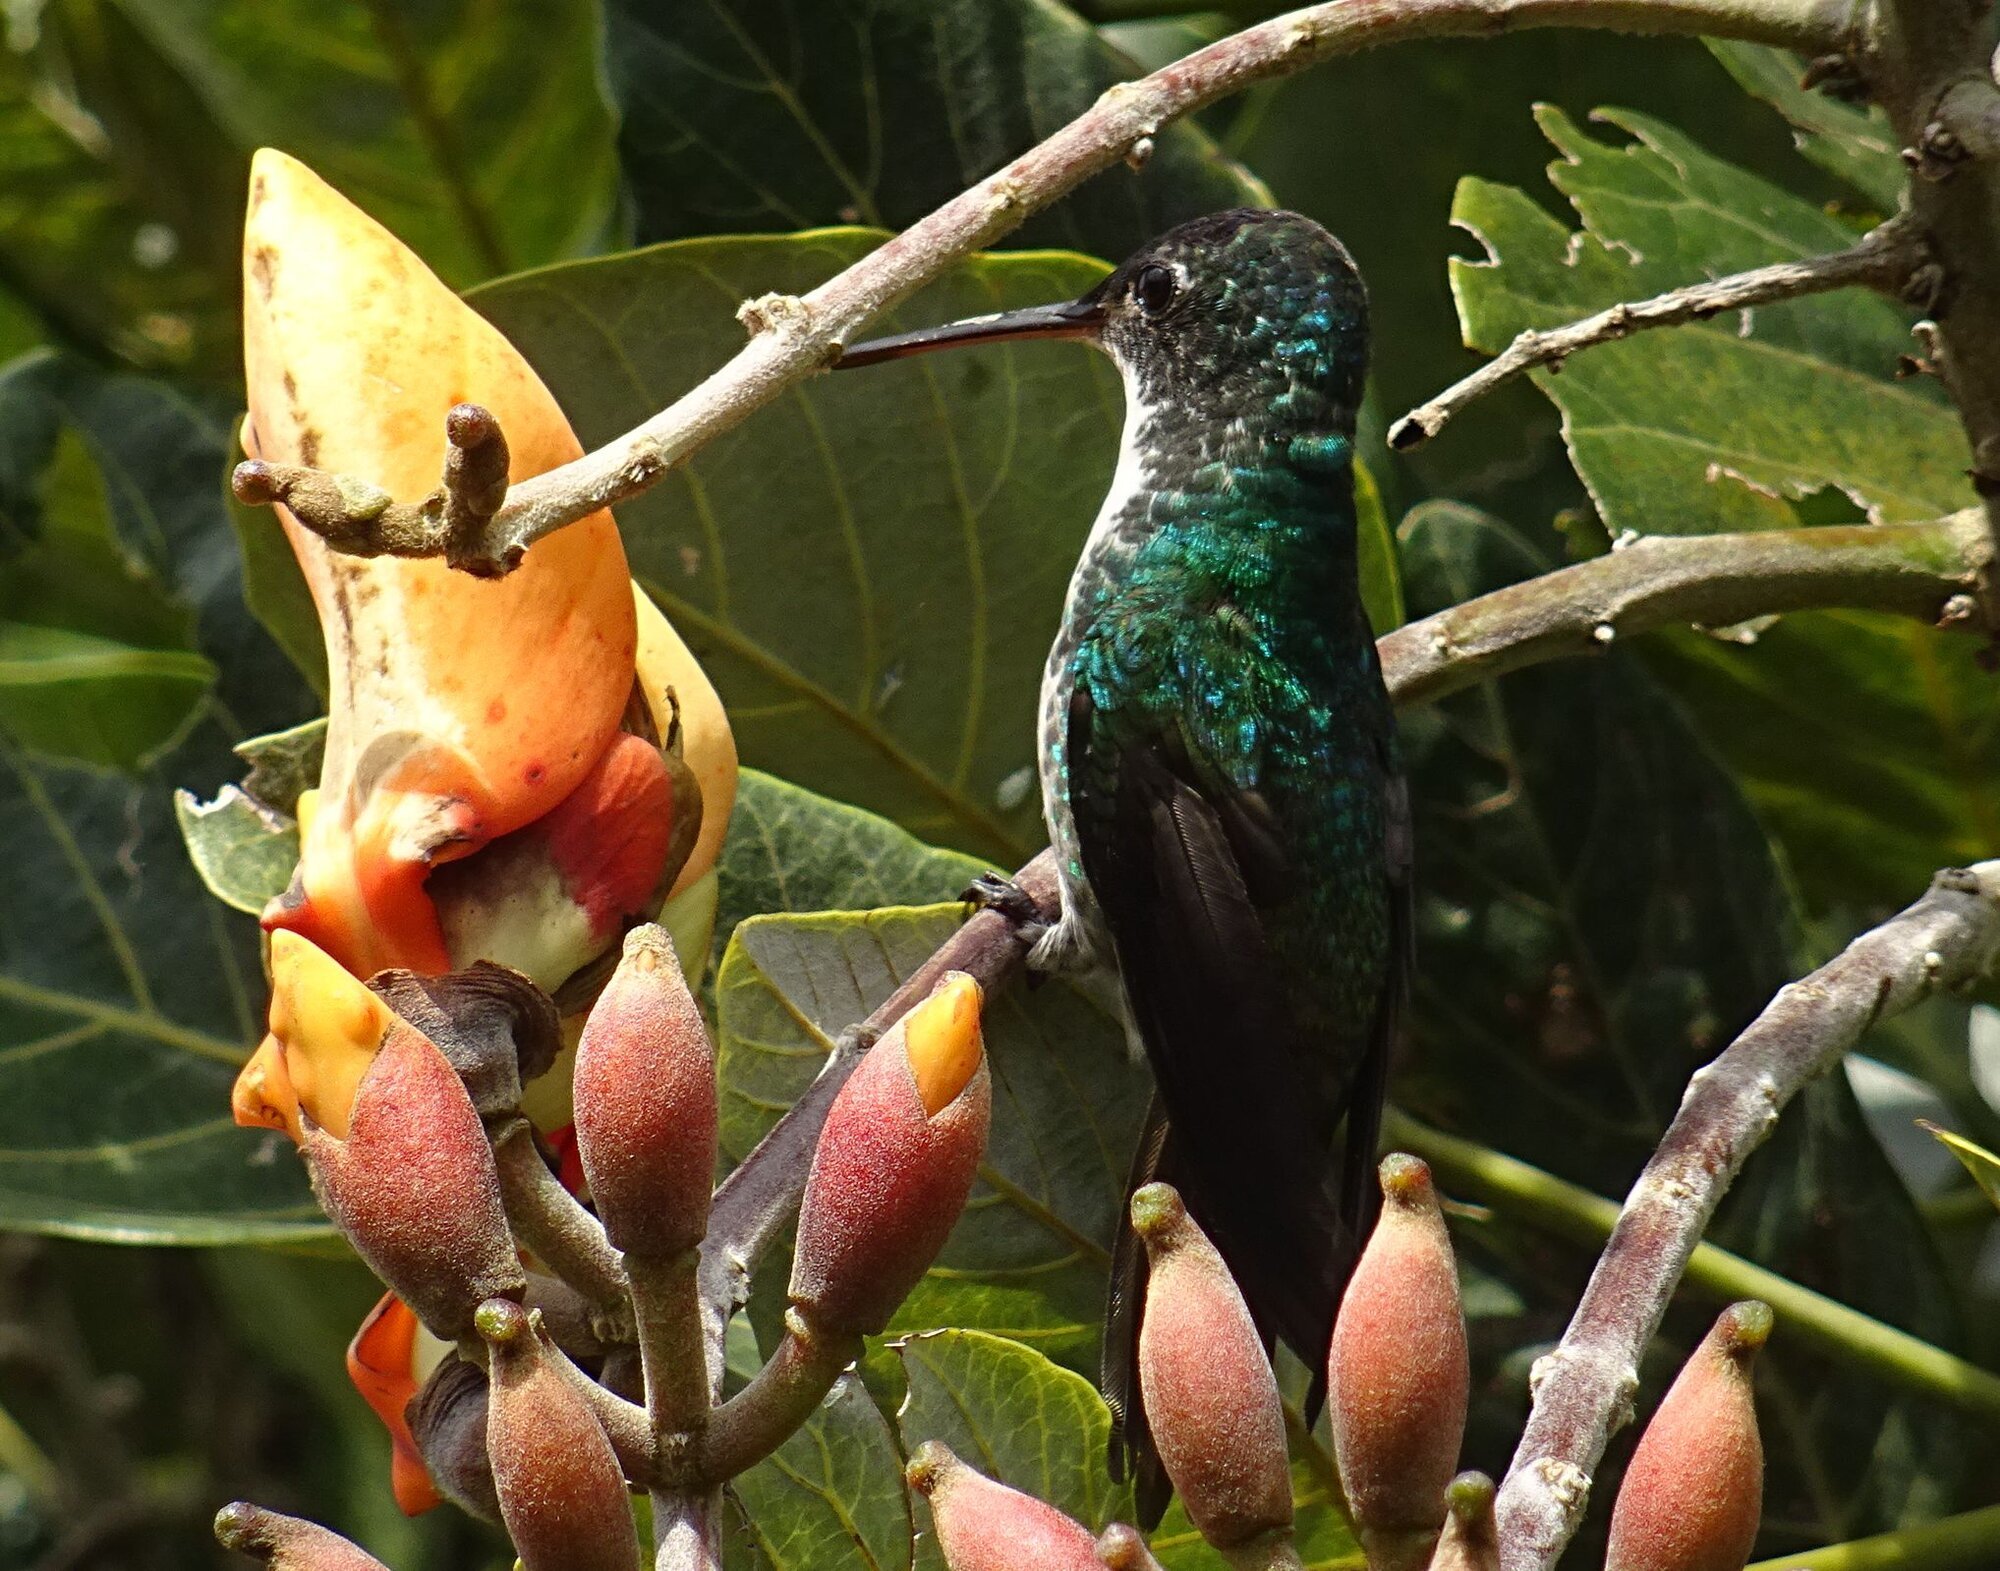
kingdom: Animalia
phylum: Chordata
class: Aves
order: Apodiformes
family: Trochilidae
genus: Uranomitra
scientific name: Uranomitra franciae
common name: Andean emerald
